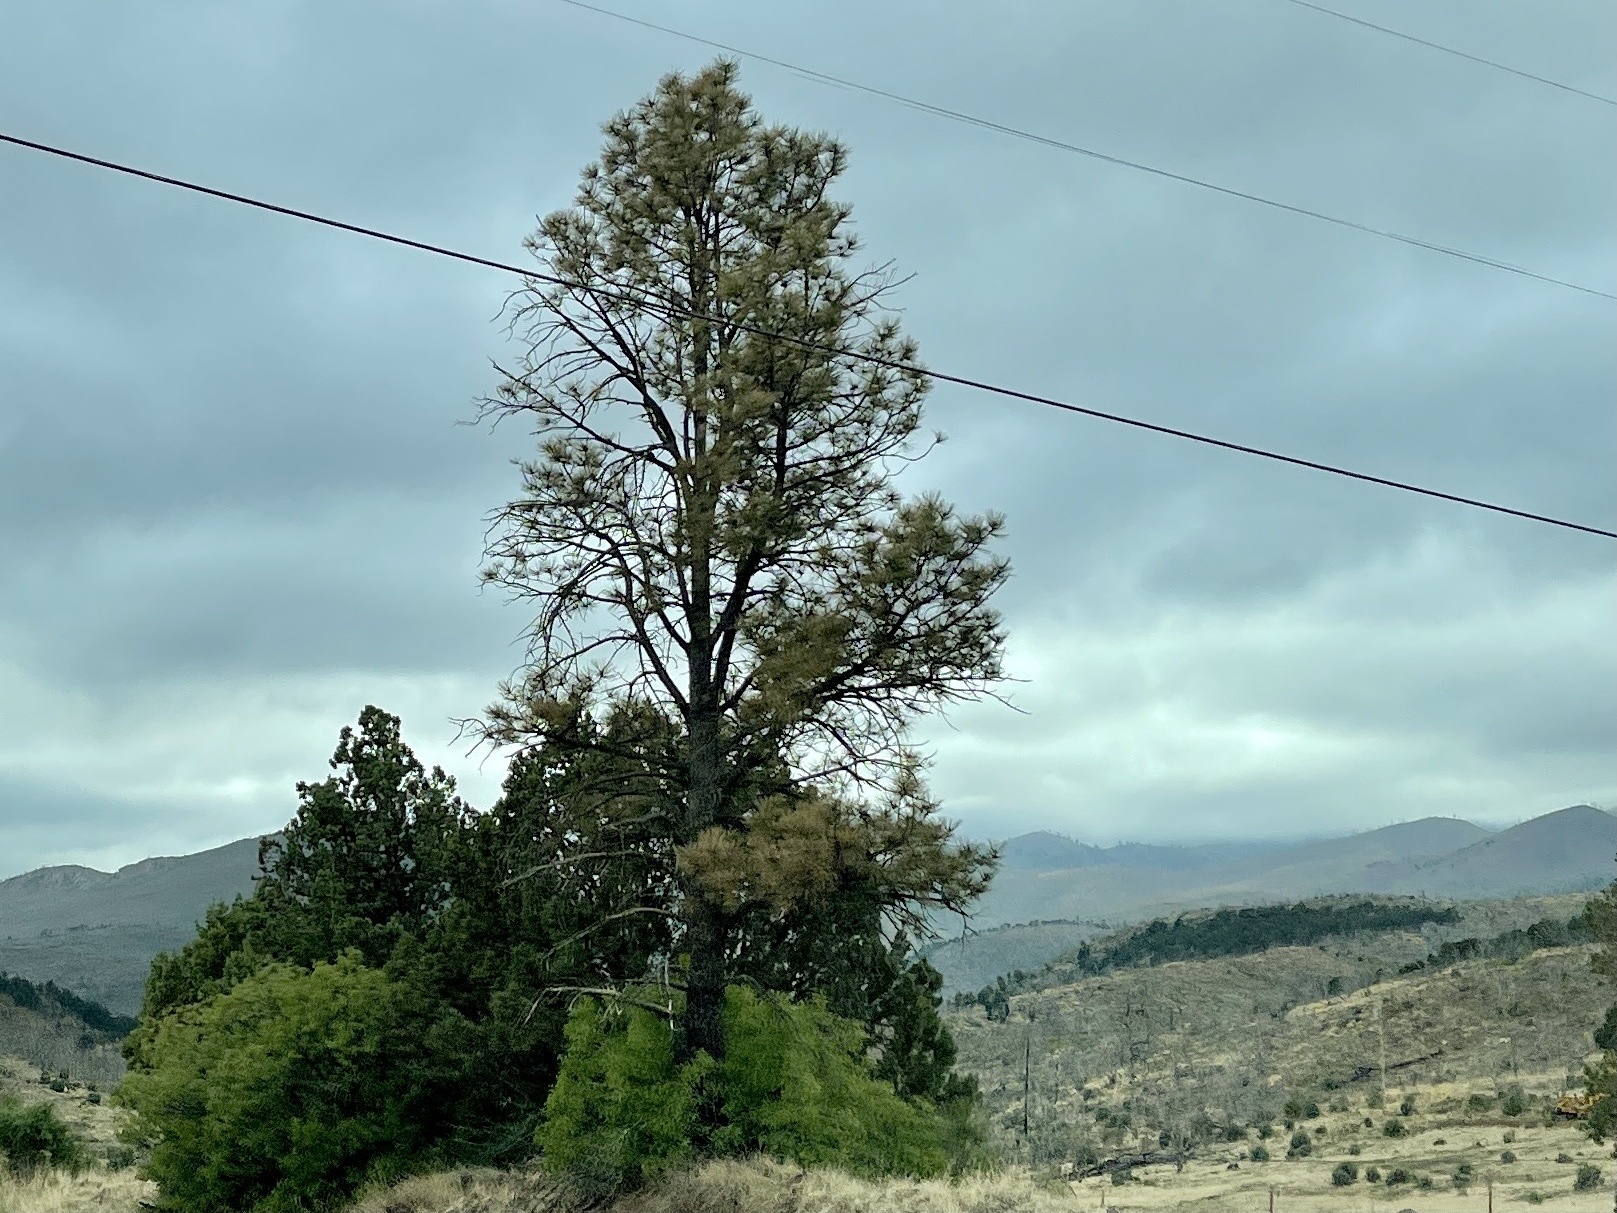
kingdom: Plantae
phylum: Tracheophyta
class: Pinopsida
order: Pinales
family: Pinaceae
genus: Pinus
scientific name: Pinus ponderosa
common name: Western yellow-pine
